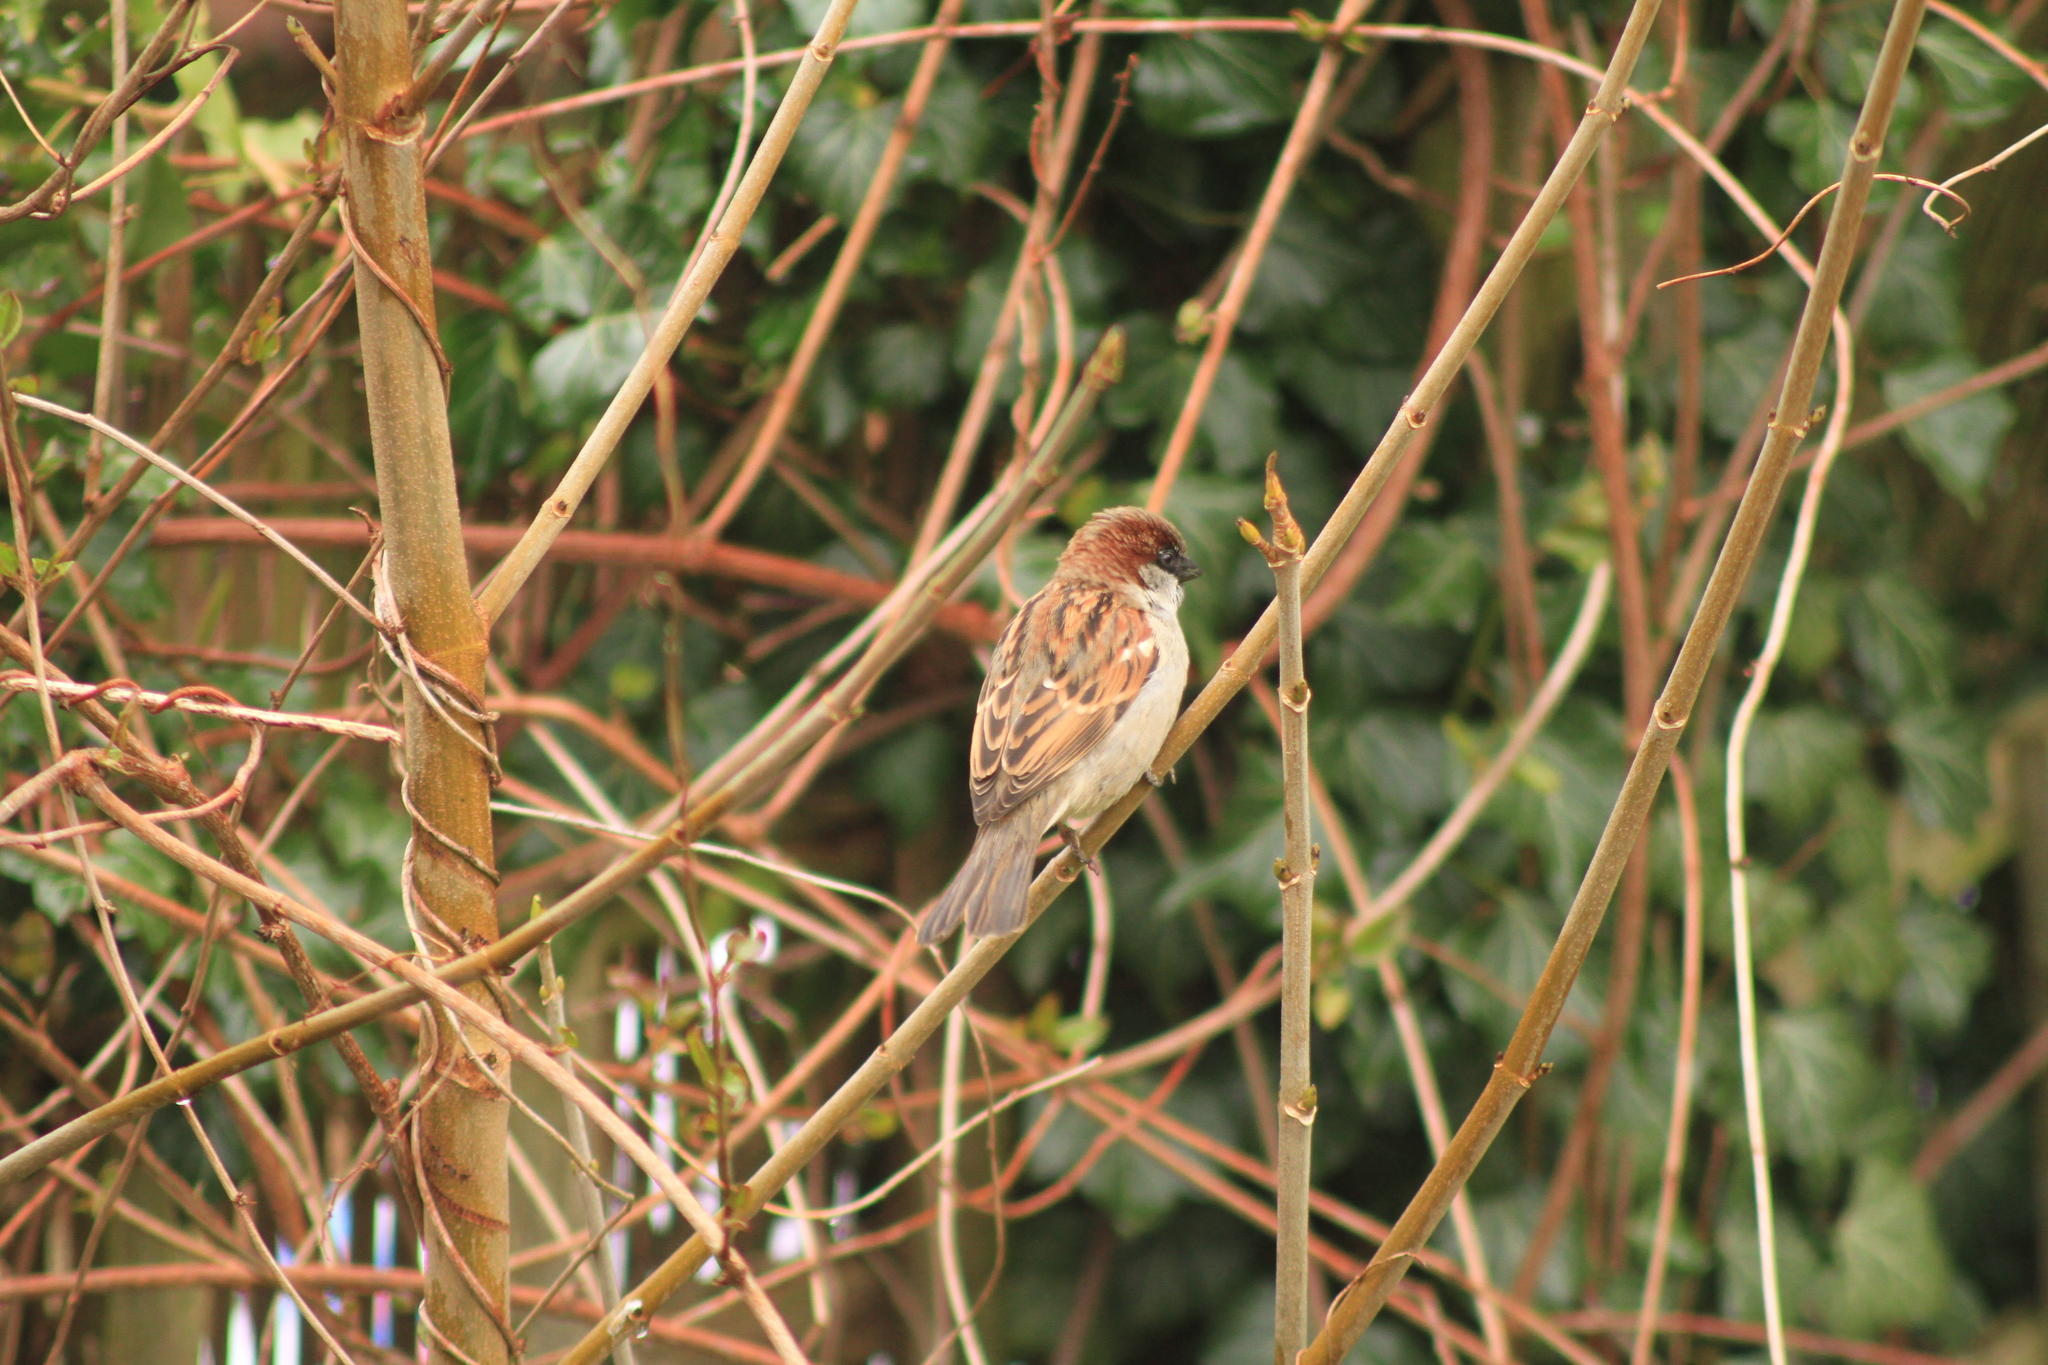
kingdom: Animalia
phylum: Chordata
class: Aves
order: Passeriformes
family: Passeridae
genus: Passer
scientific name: Passer domesticus
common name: House sparrow
